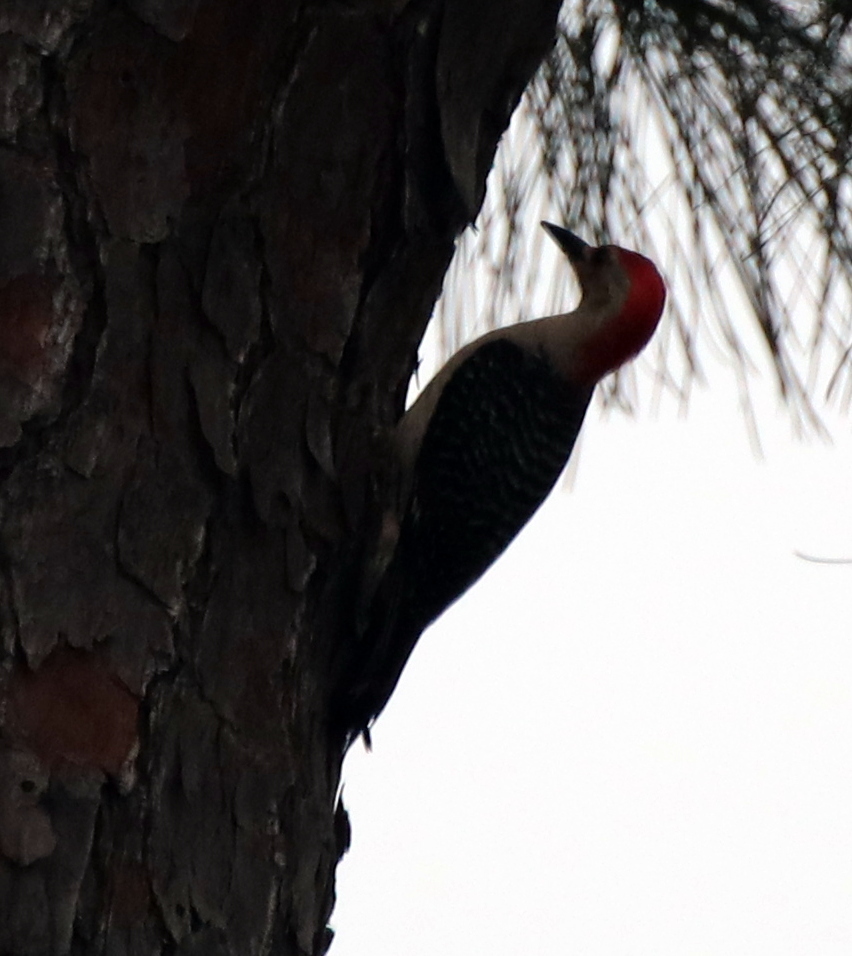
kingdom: Animalia
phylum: Chordata
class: Aves
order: Piciformes
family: Picidae
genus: Melanerpes
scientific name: Melanerpes carolinus
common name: Red-bellied woodpecker
